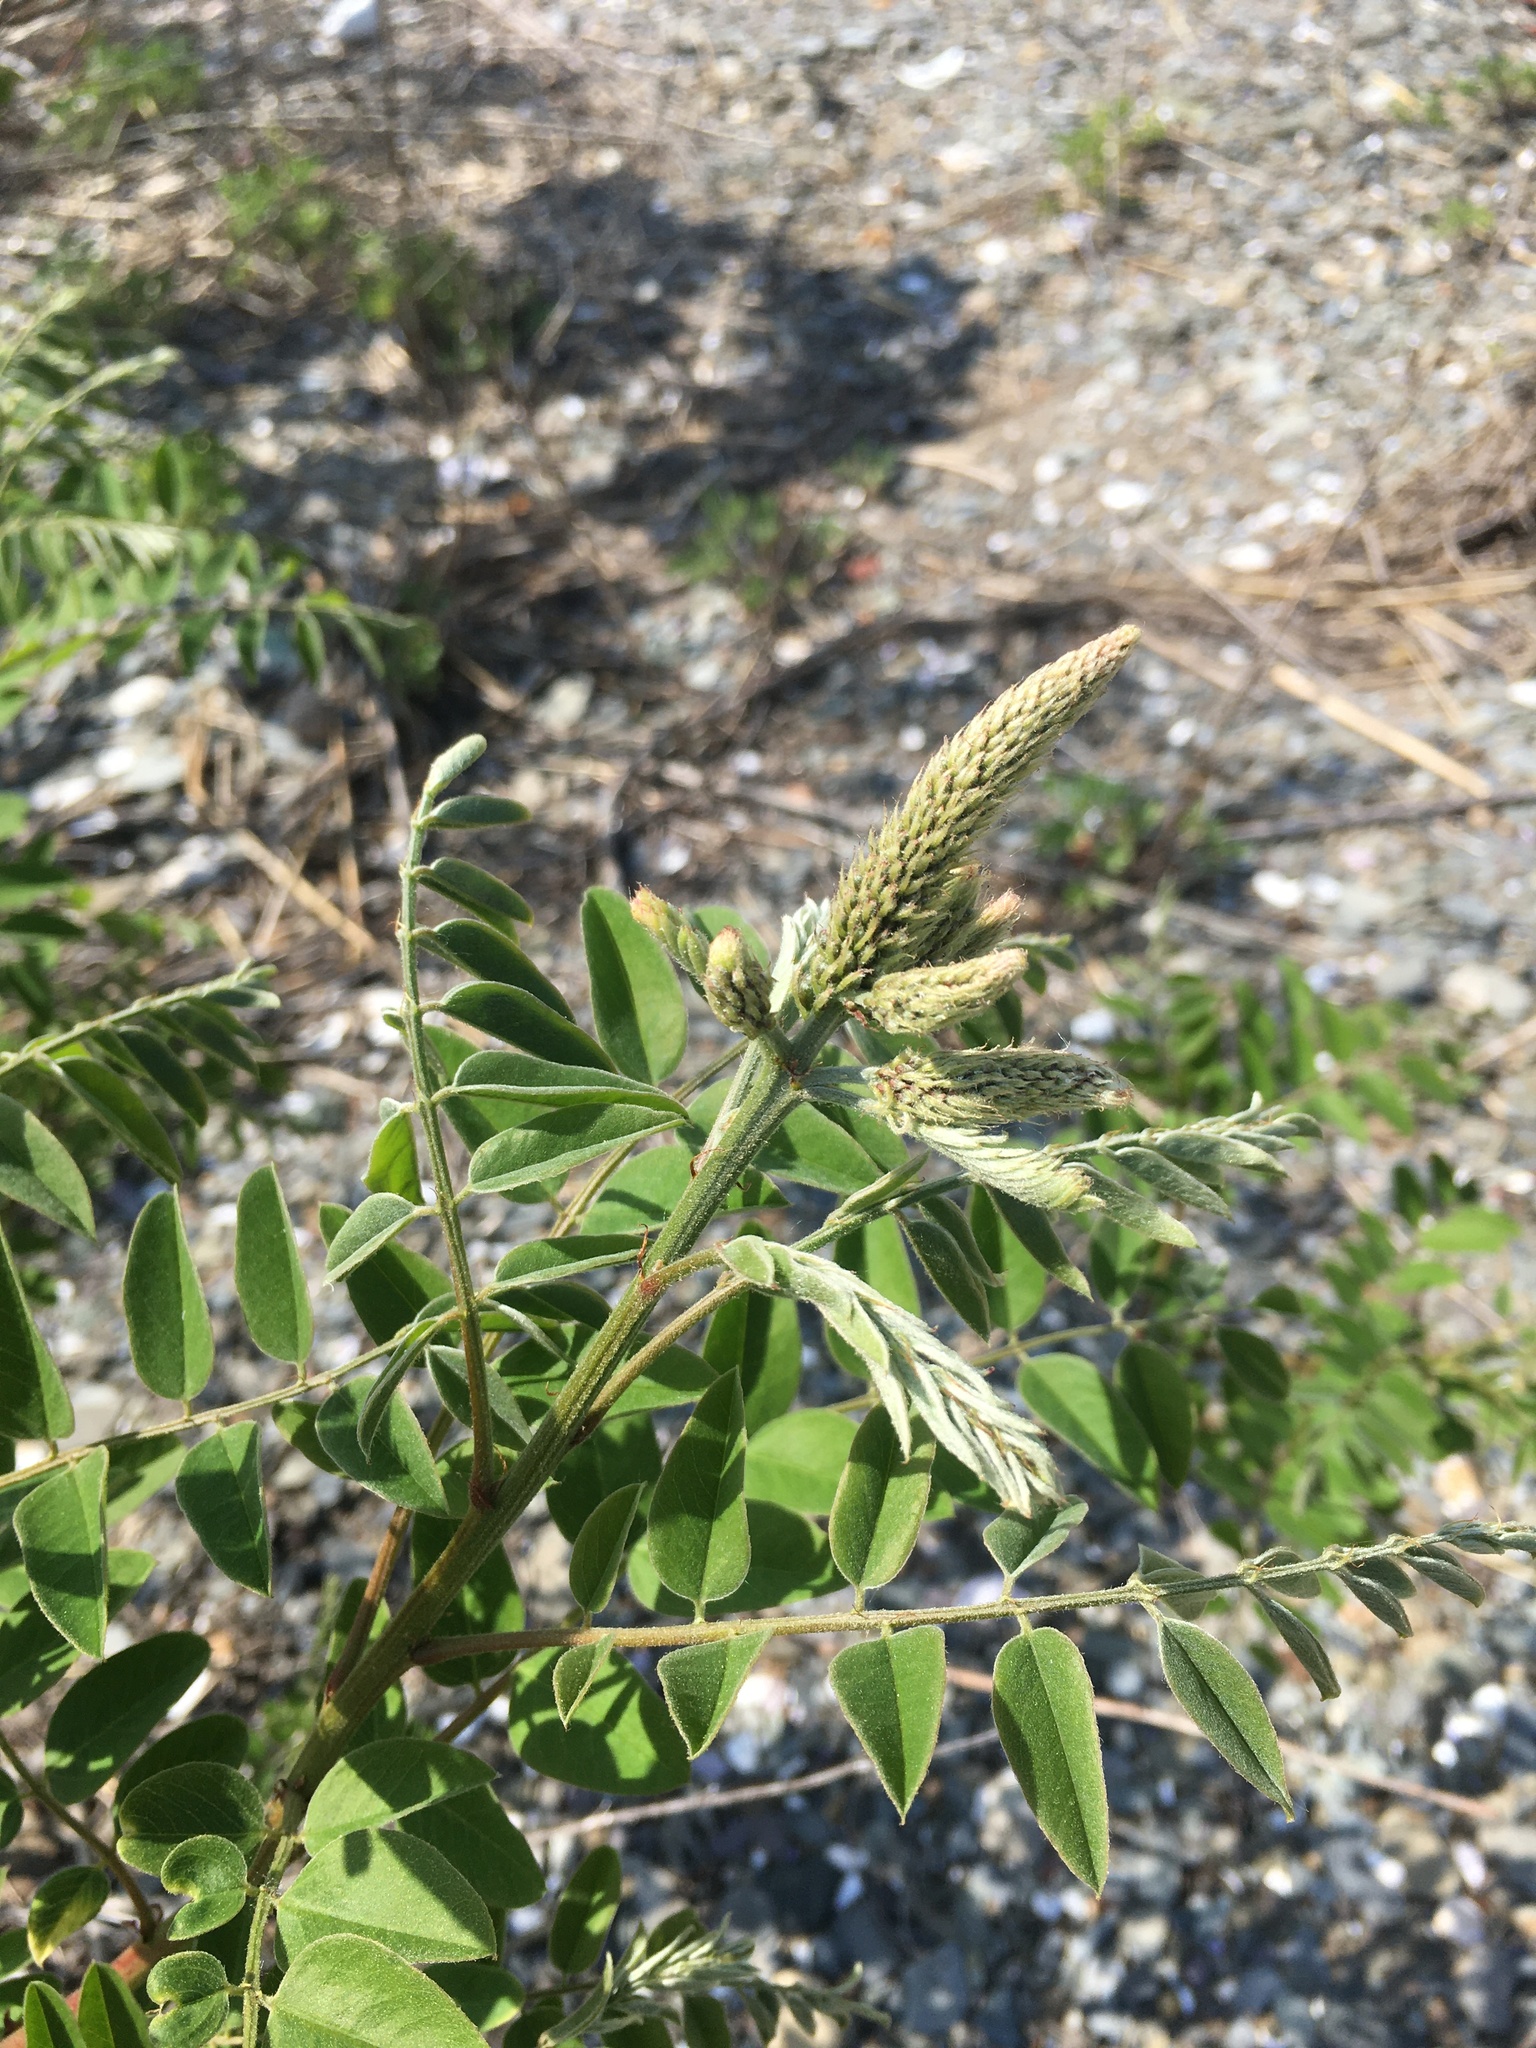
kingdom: Plantae
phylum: Tracheophyta
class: Magnoliopsida
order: Fabales
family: Fabaceae
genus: Amorpha
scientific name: Amorpha fruticosa
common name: False indigo
